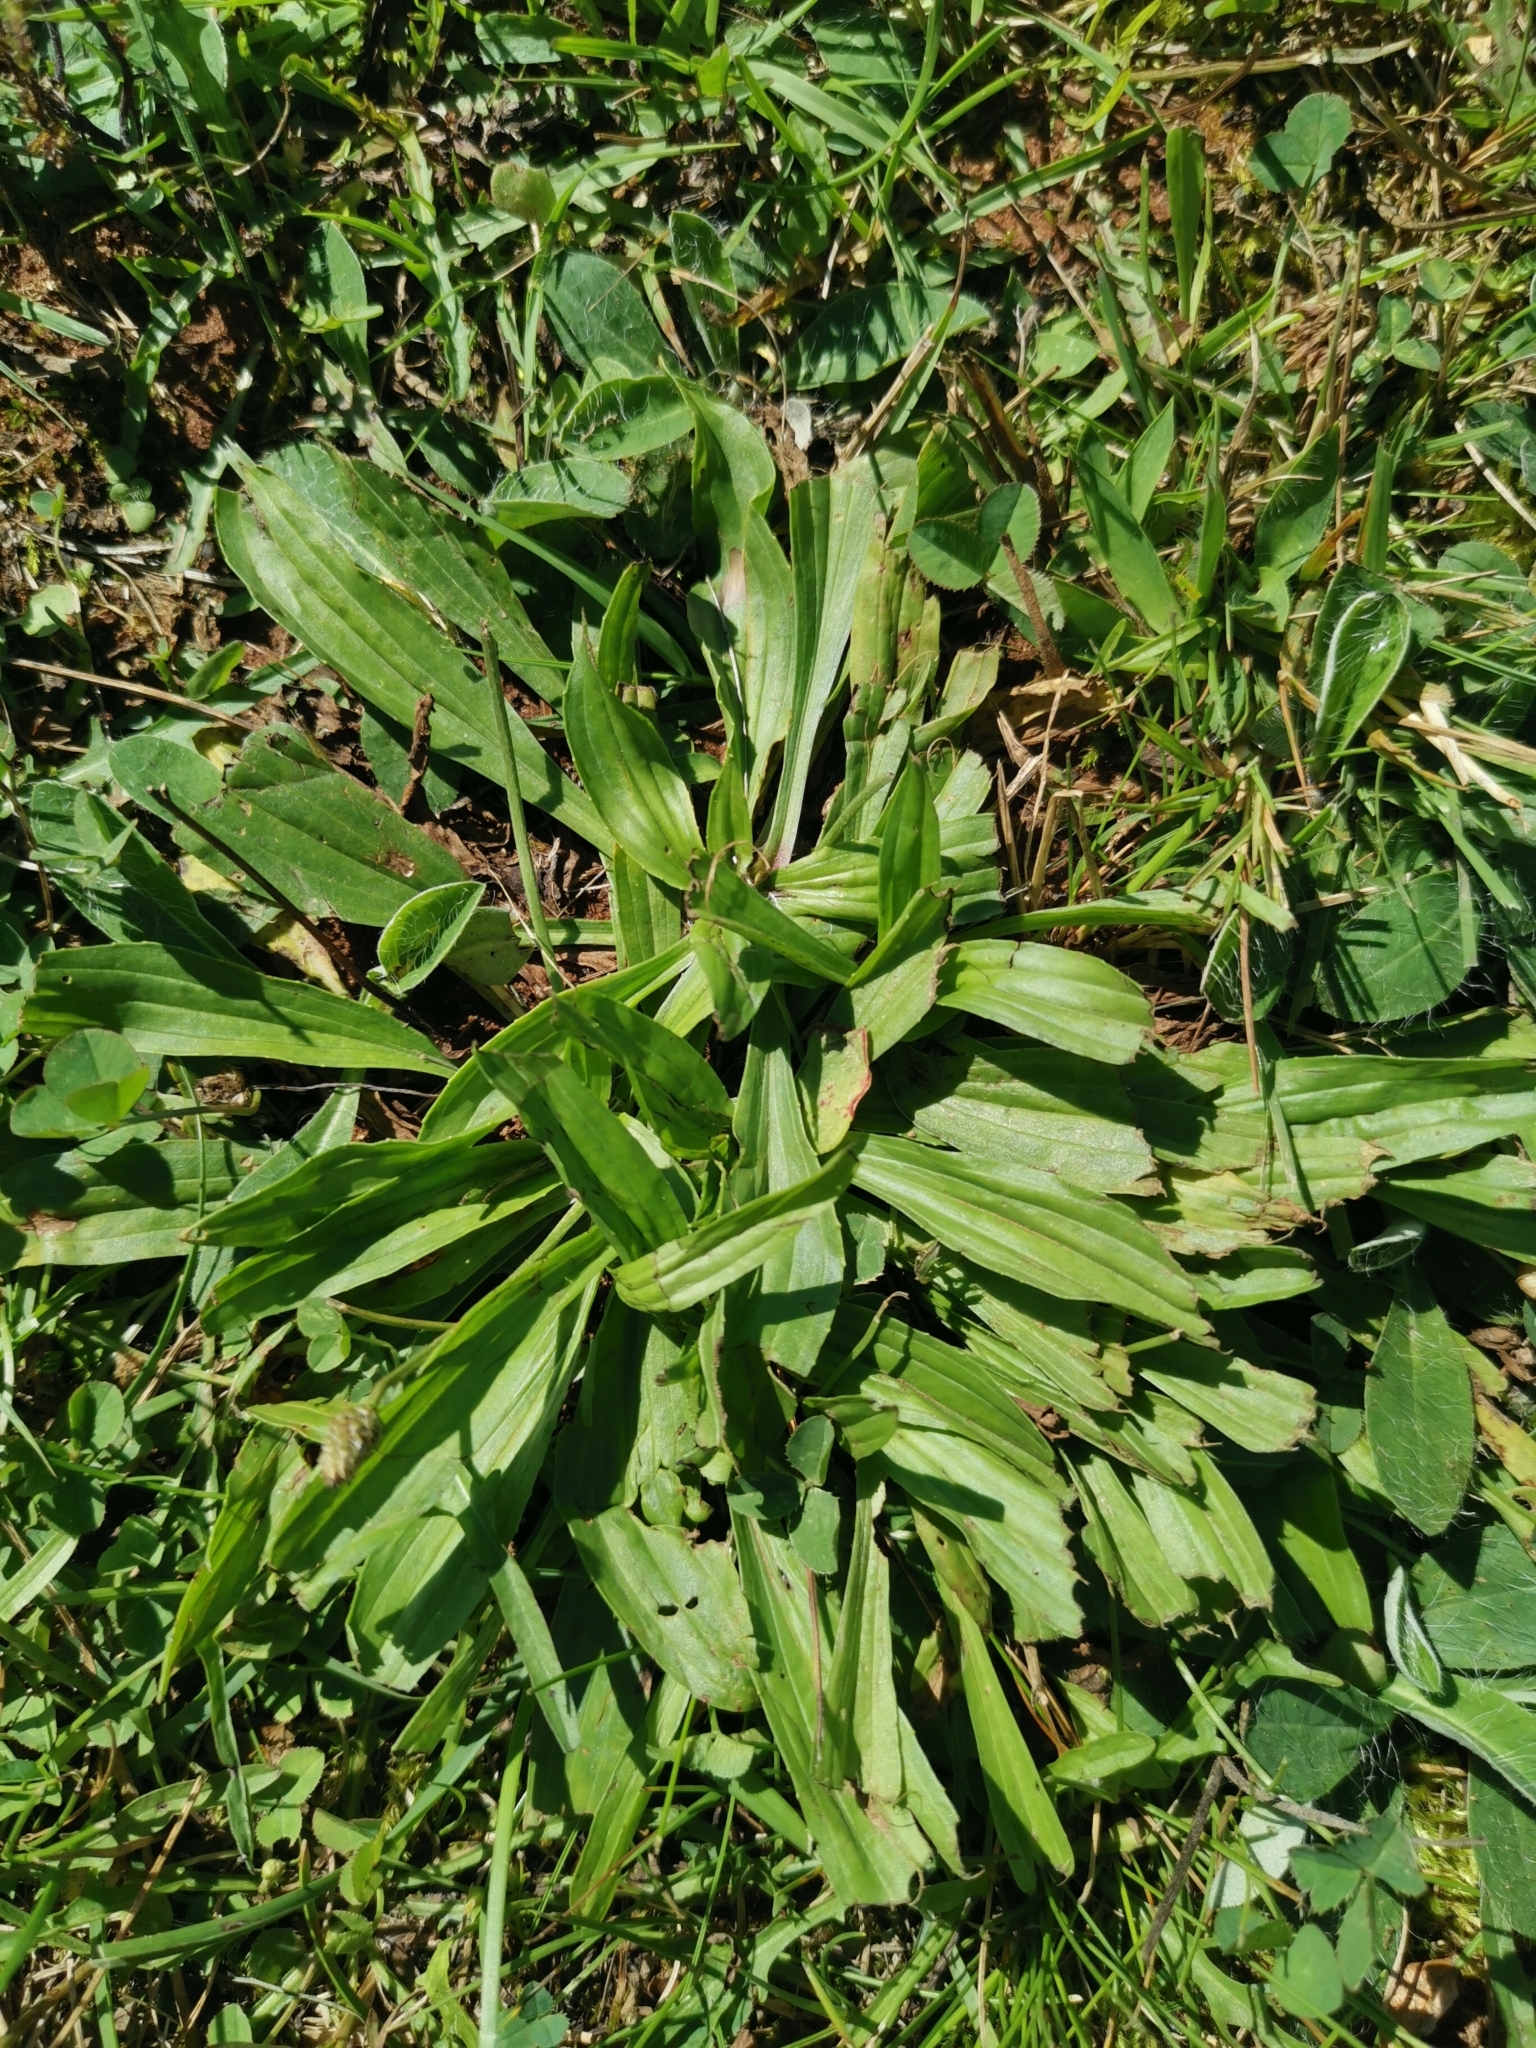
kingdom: Plantae
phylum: Tracheophyta
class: Magnoliopsida
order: Lamiales
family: Plantaginaceae
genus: Plantago
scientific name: Plantago lanceolata
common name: Ribwort plantain
